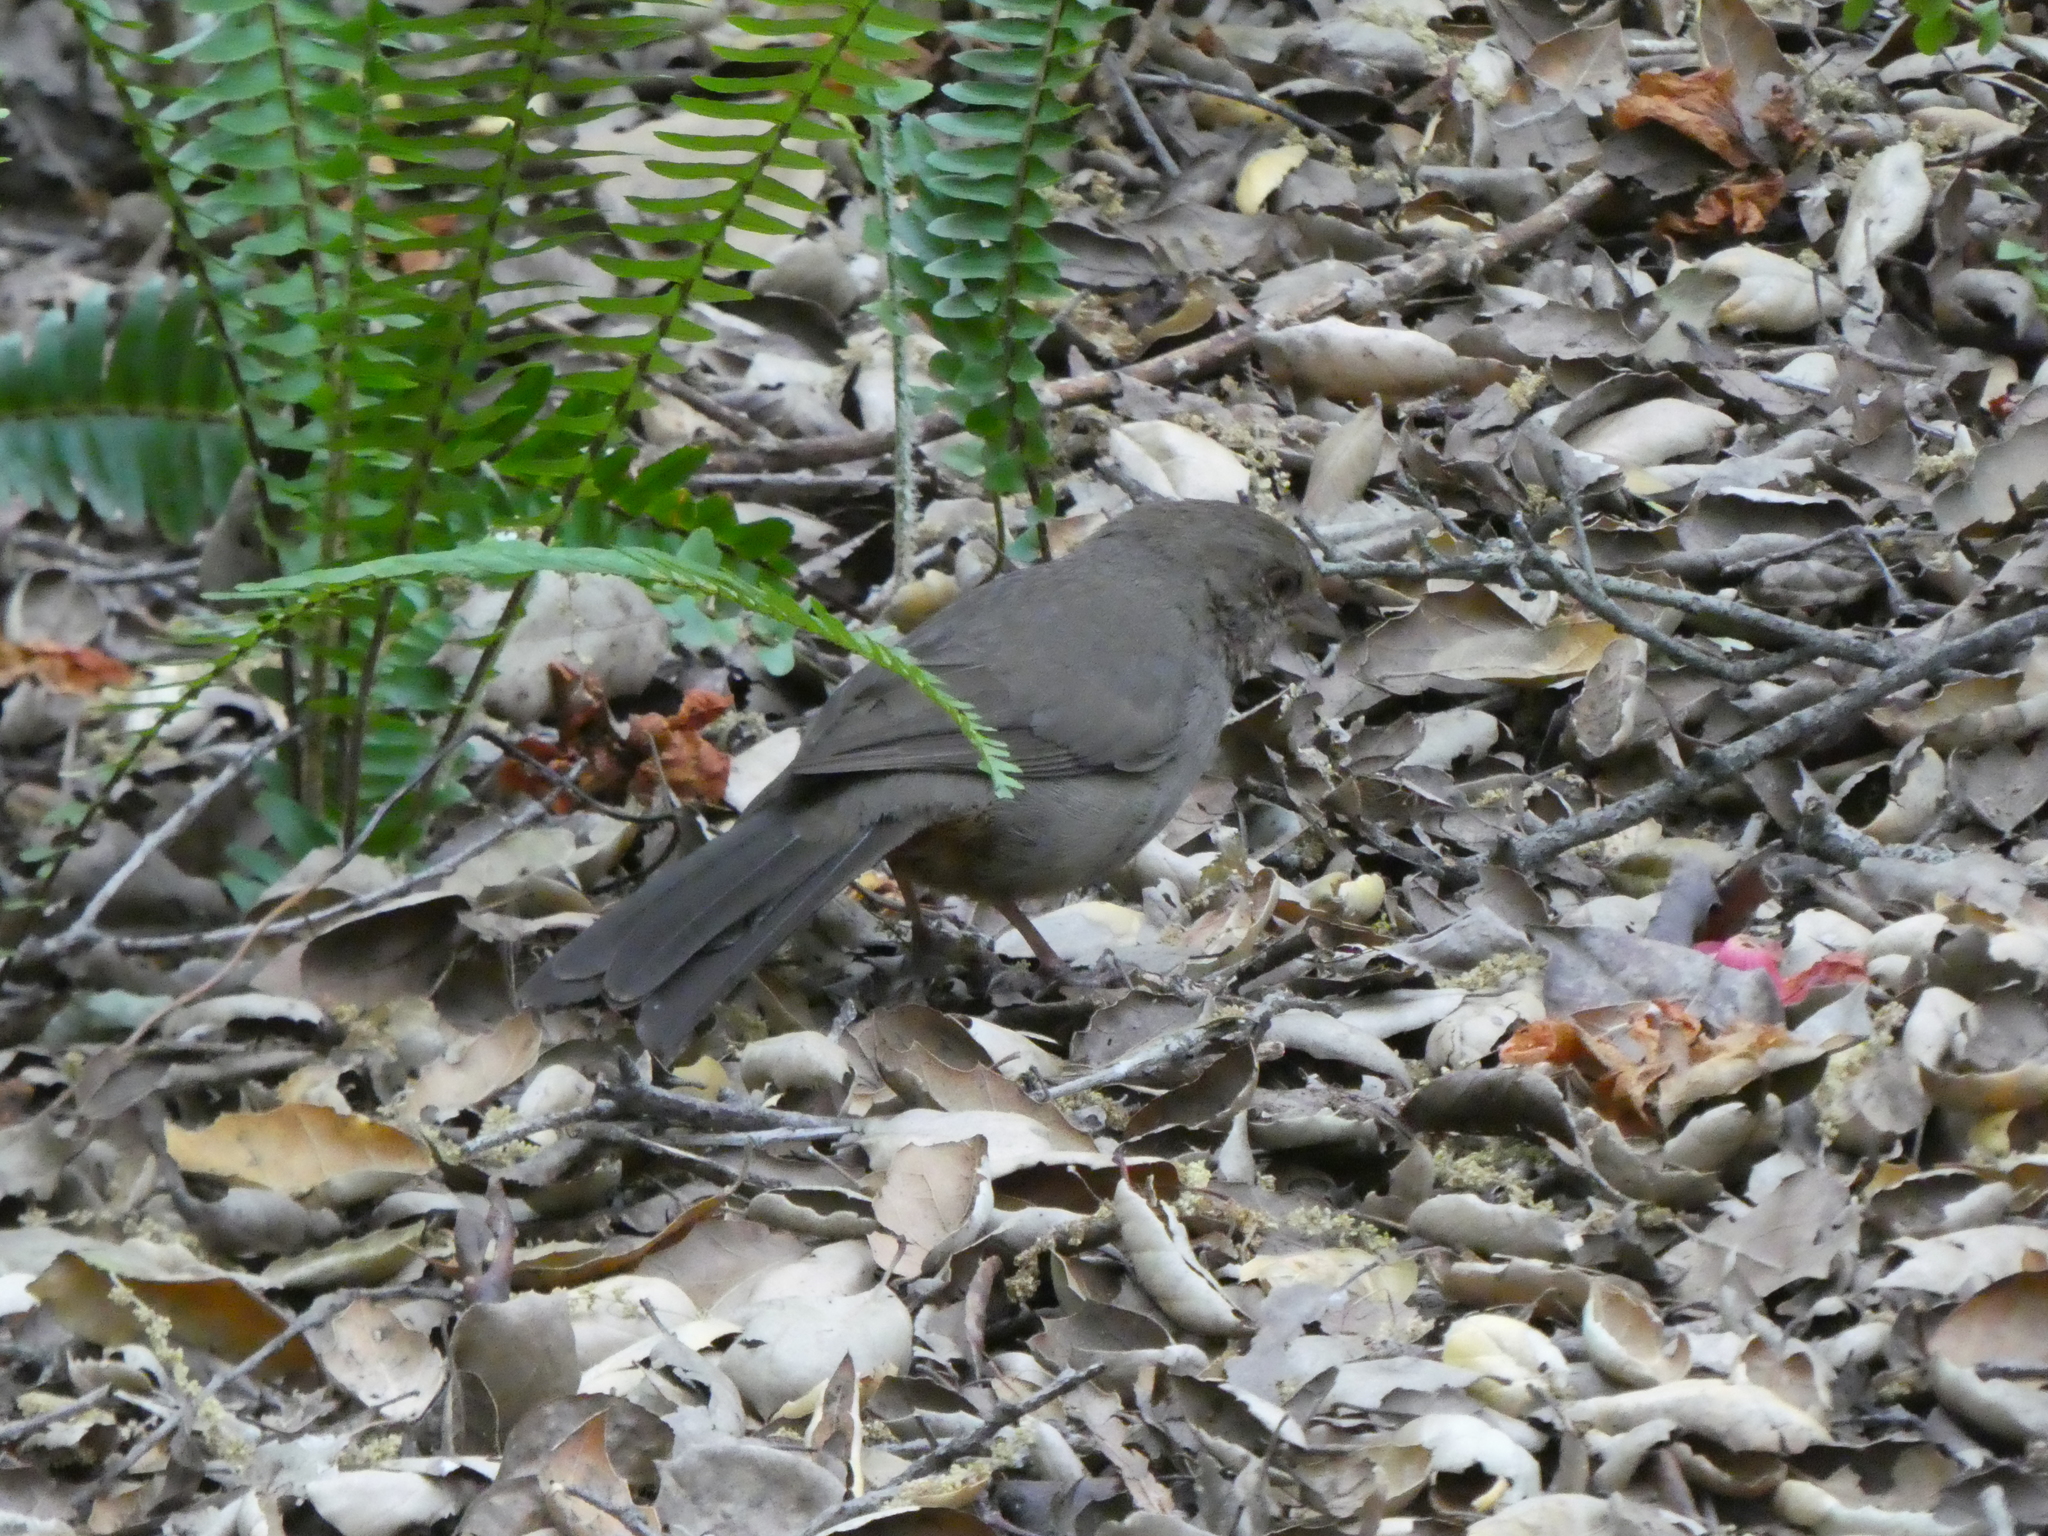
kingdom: Animalia
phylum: Chordata
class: Aves
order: Passeriformes
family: Passerellidae
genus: Melozone
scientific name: Melozone crissalis
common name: California towhee
